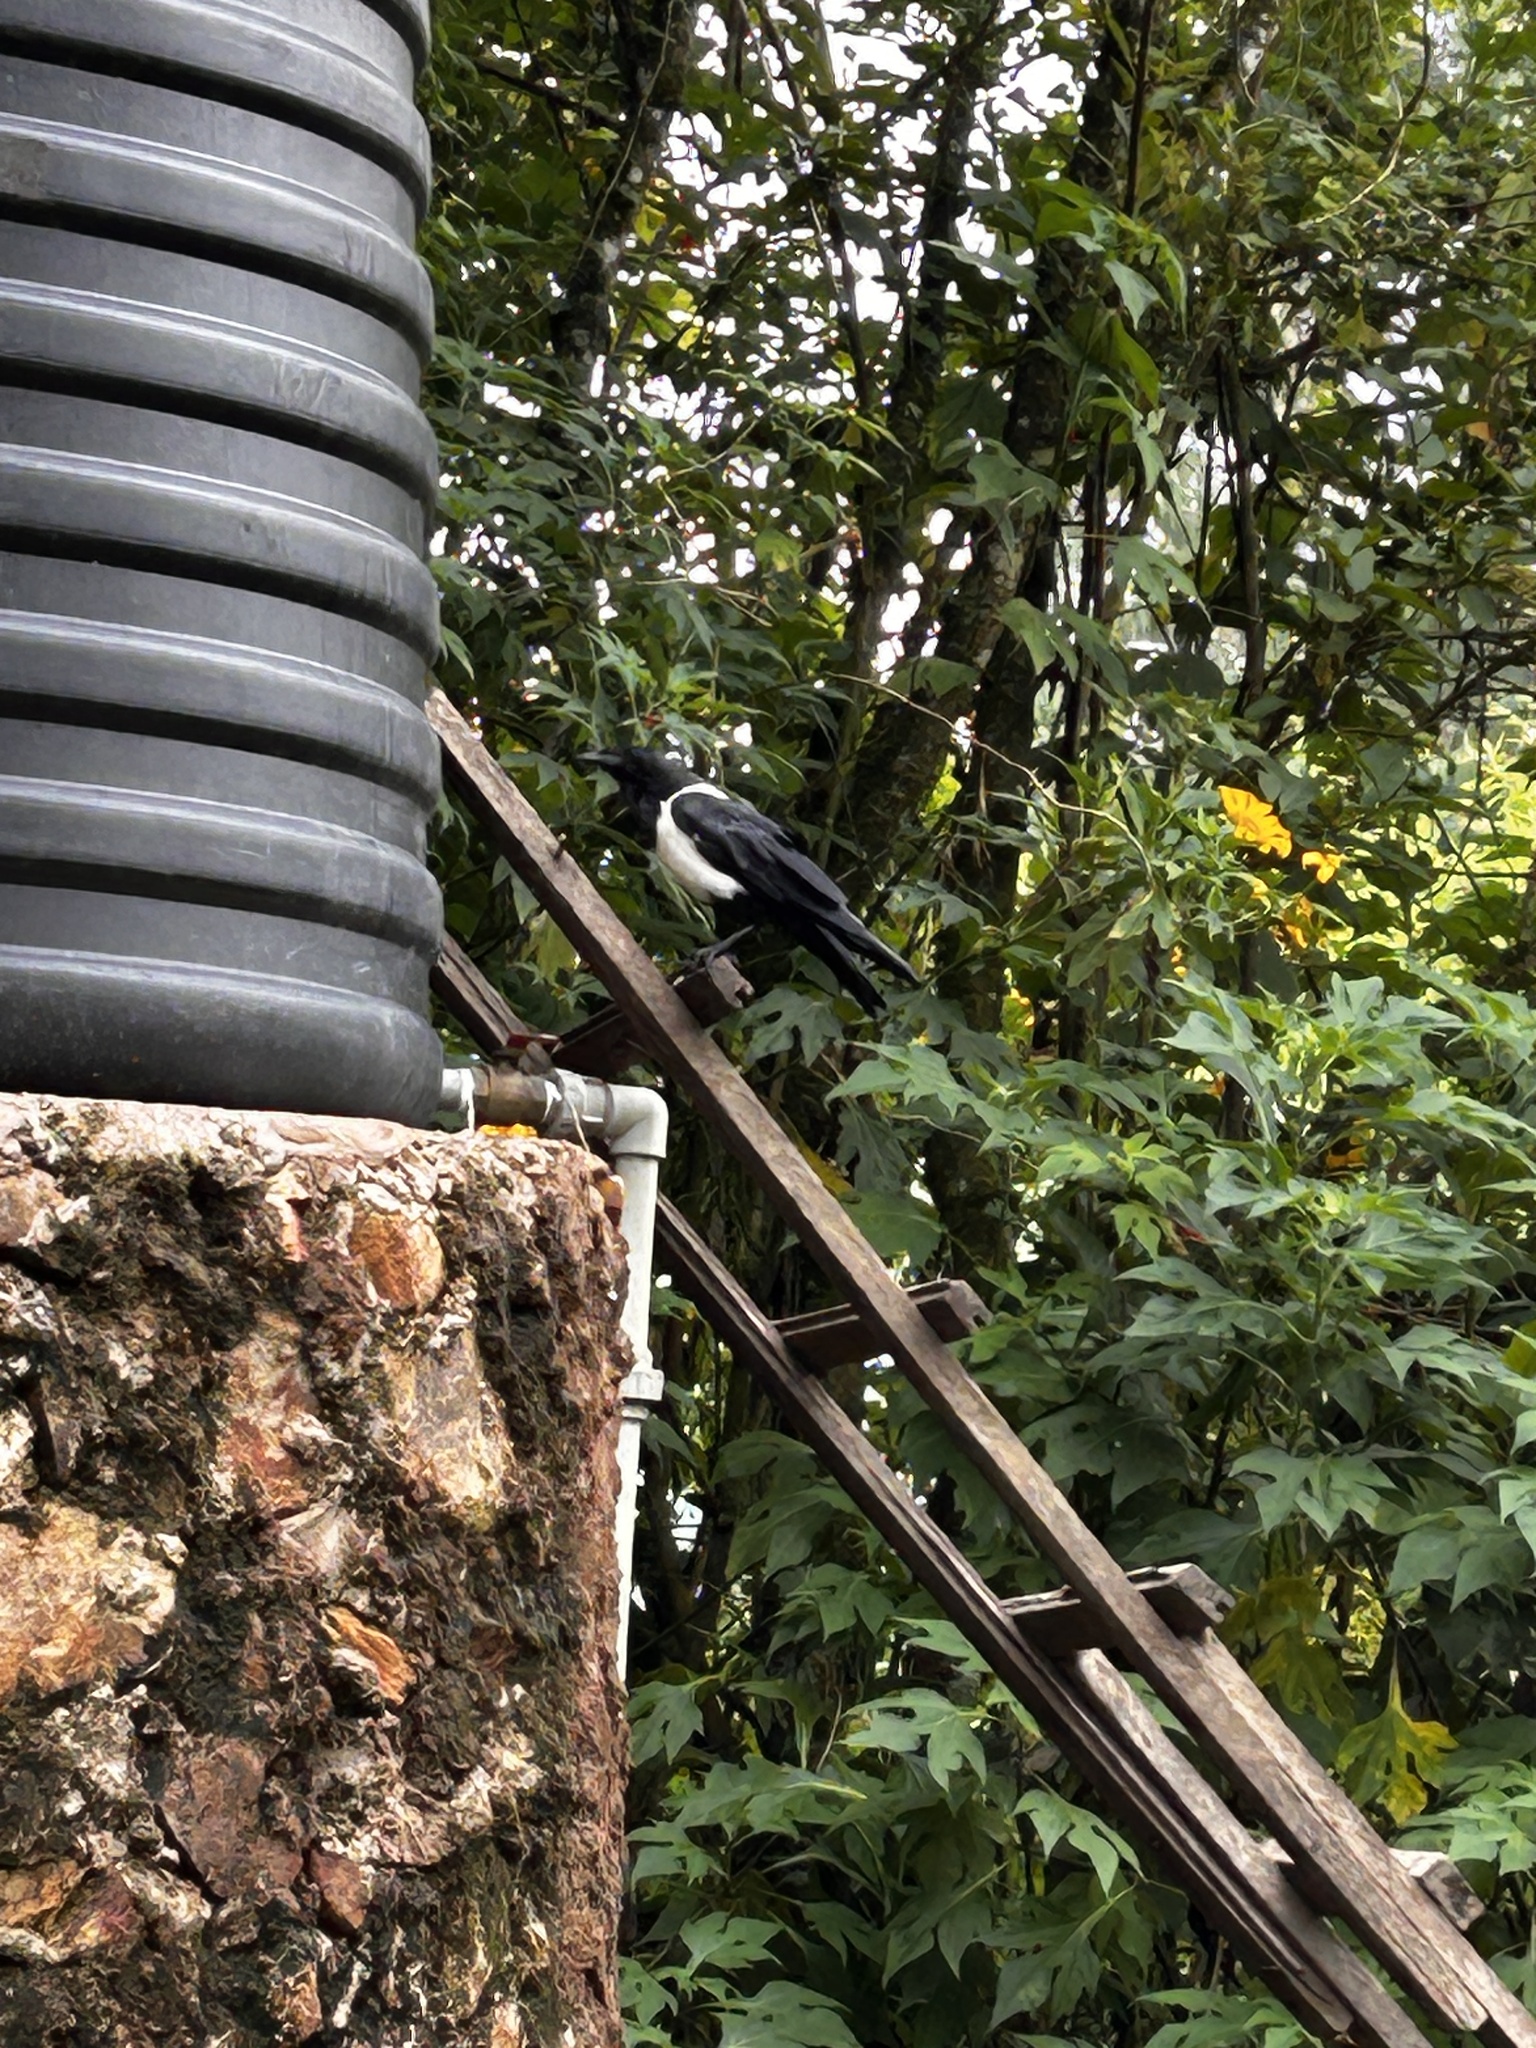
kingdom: Animalia
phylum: Chordata
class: Aves
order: Passeriformes
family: Corvidae
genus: Corvus
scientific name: Corvus albus
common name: Pied crow
